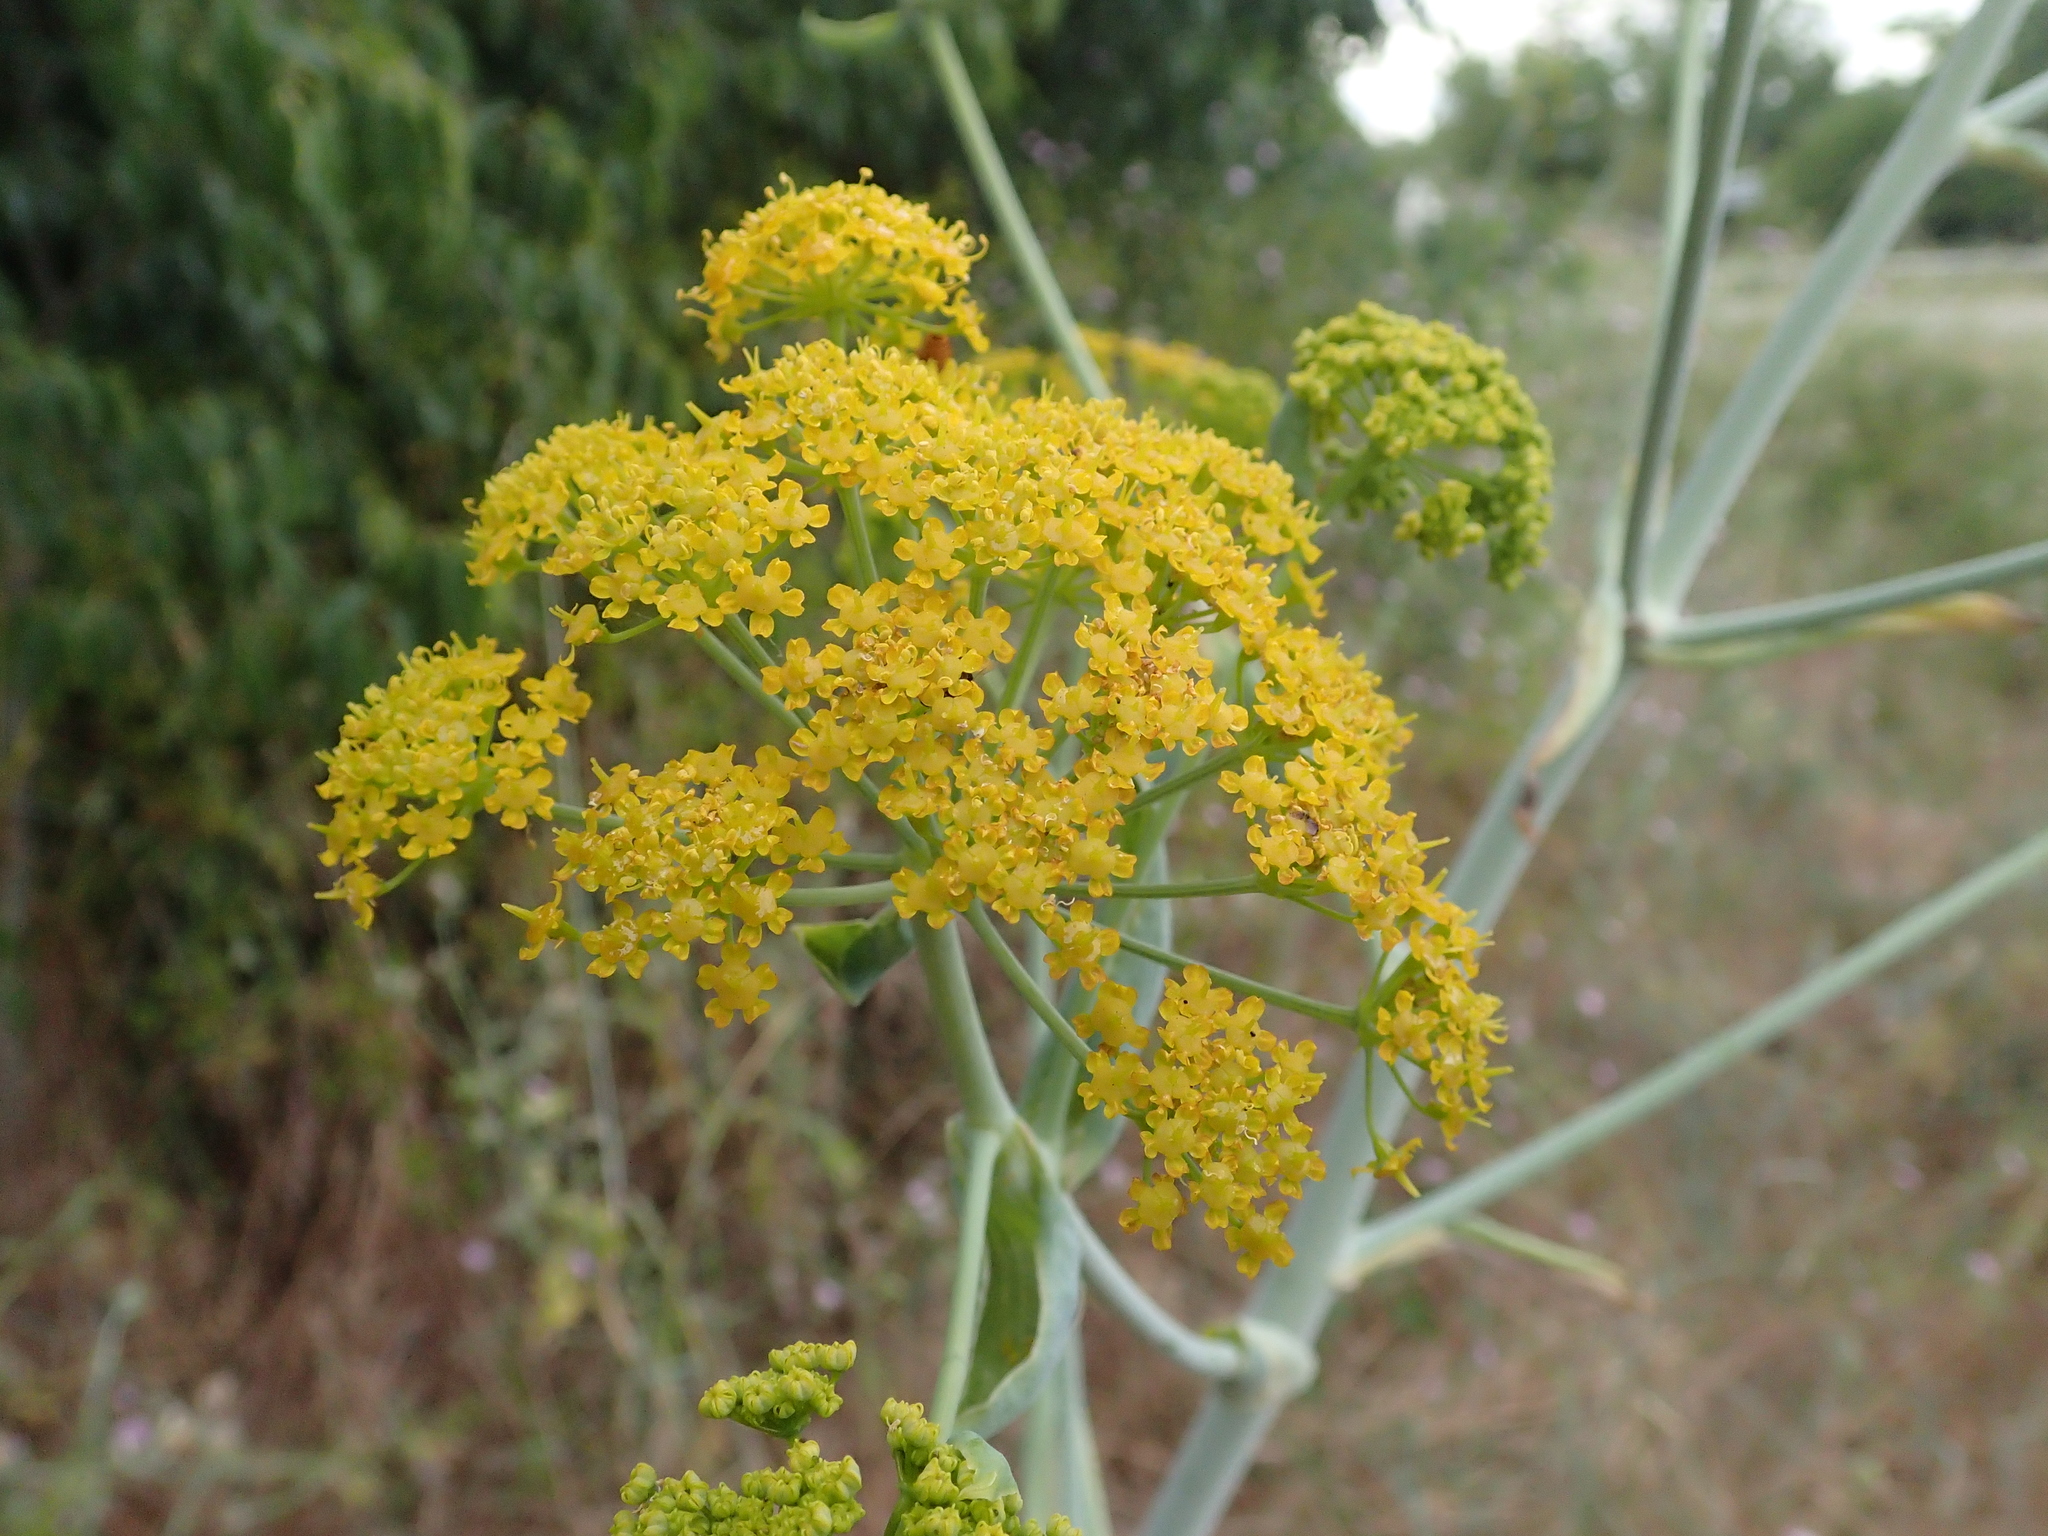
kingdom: Plantae
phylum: Tracheophyta
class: Magnoliopsida
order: Apiales
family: Apiaceae
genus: Ferula
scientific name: Ferula glauca
